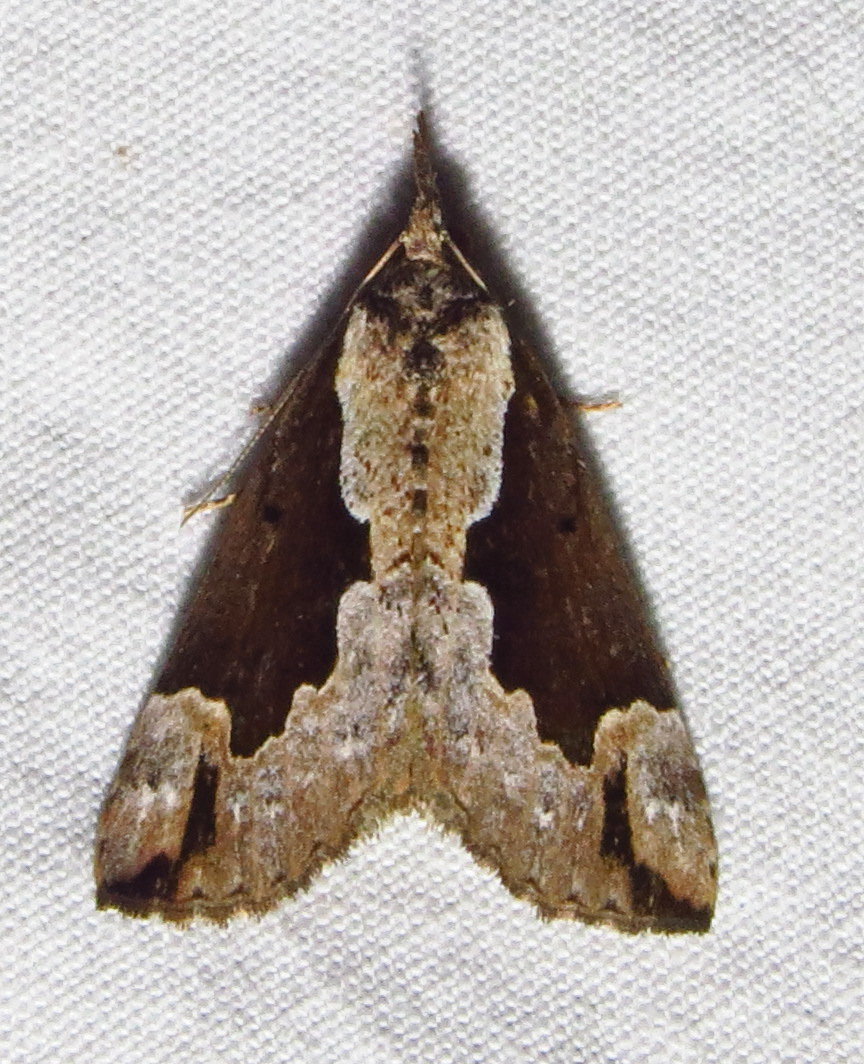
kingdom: Animalia
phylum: Arthropoda
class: Insecta
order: Lepidoptera
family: Erebidae
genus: Hypena
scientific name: Hypena baltimoralis
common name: Baltimore snout
